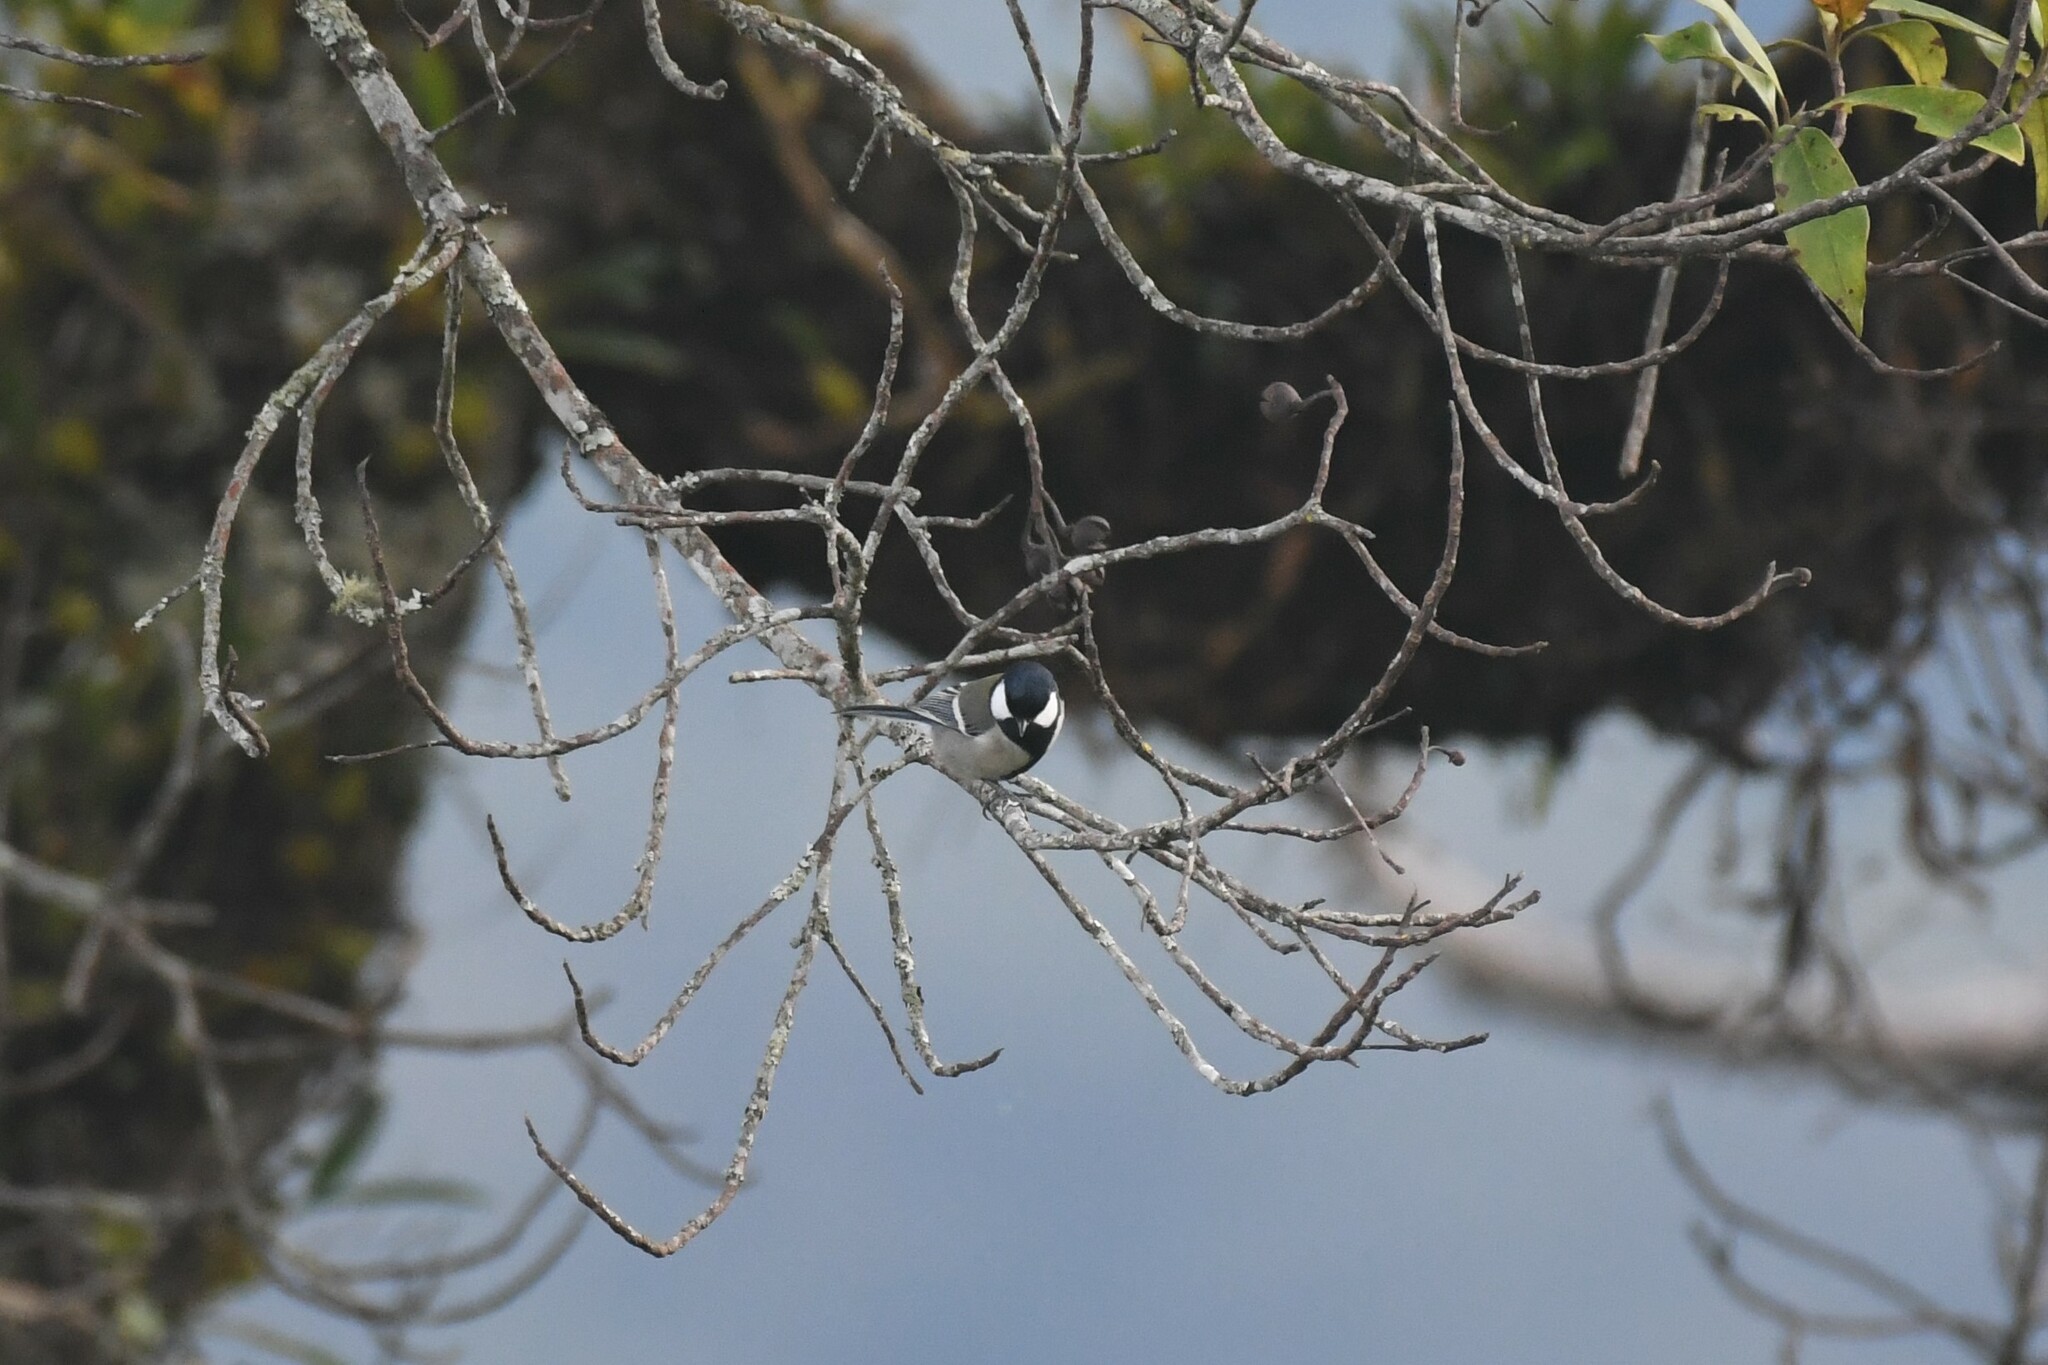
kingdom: Animalia
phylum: Chordata
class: Aves
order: Passeriformes
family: Paridae
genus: Parus
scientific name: Parus minor
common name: Japanese tit
